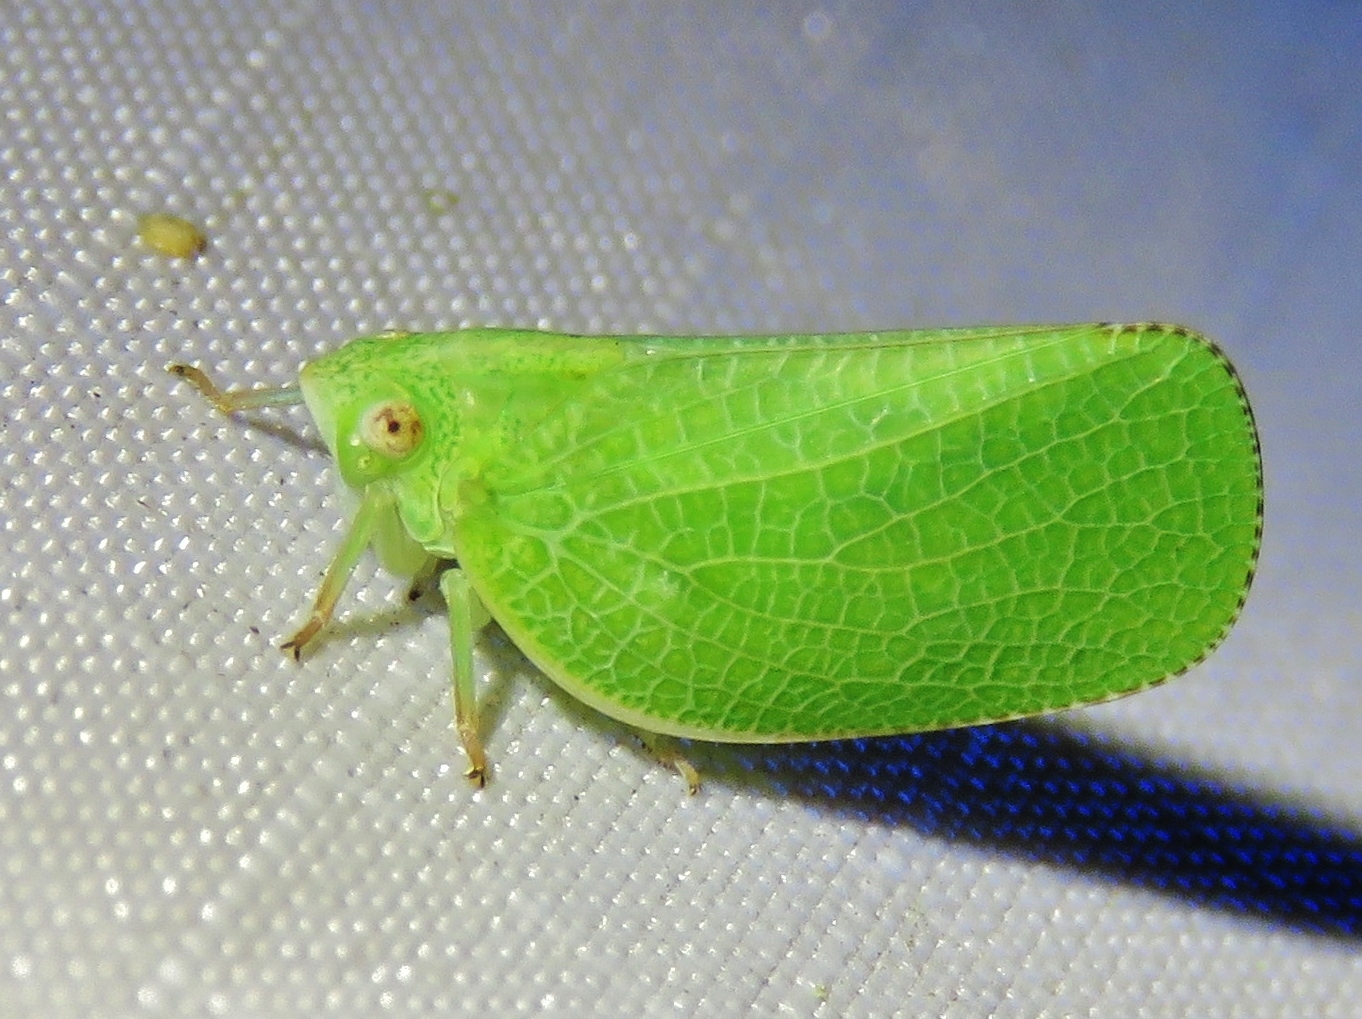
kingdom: Animalia
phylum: Arthropoda
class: Insecta
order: Hemiptera
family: Acanaloniidae
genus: Acanalonia
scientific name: Acanalonia conica
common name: Green cone-headed planthopper
